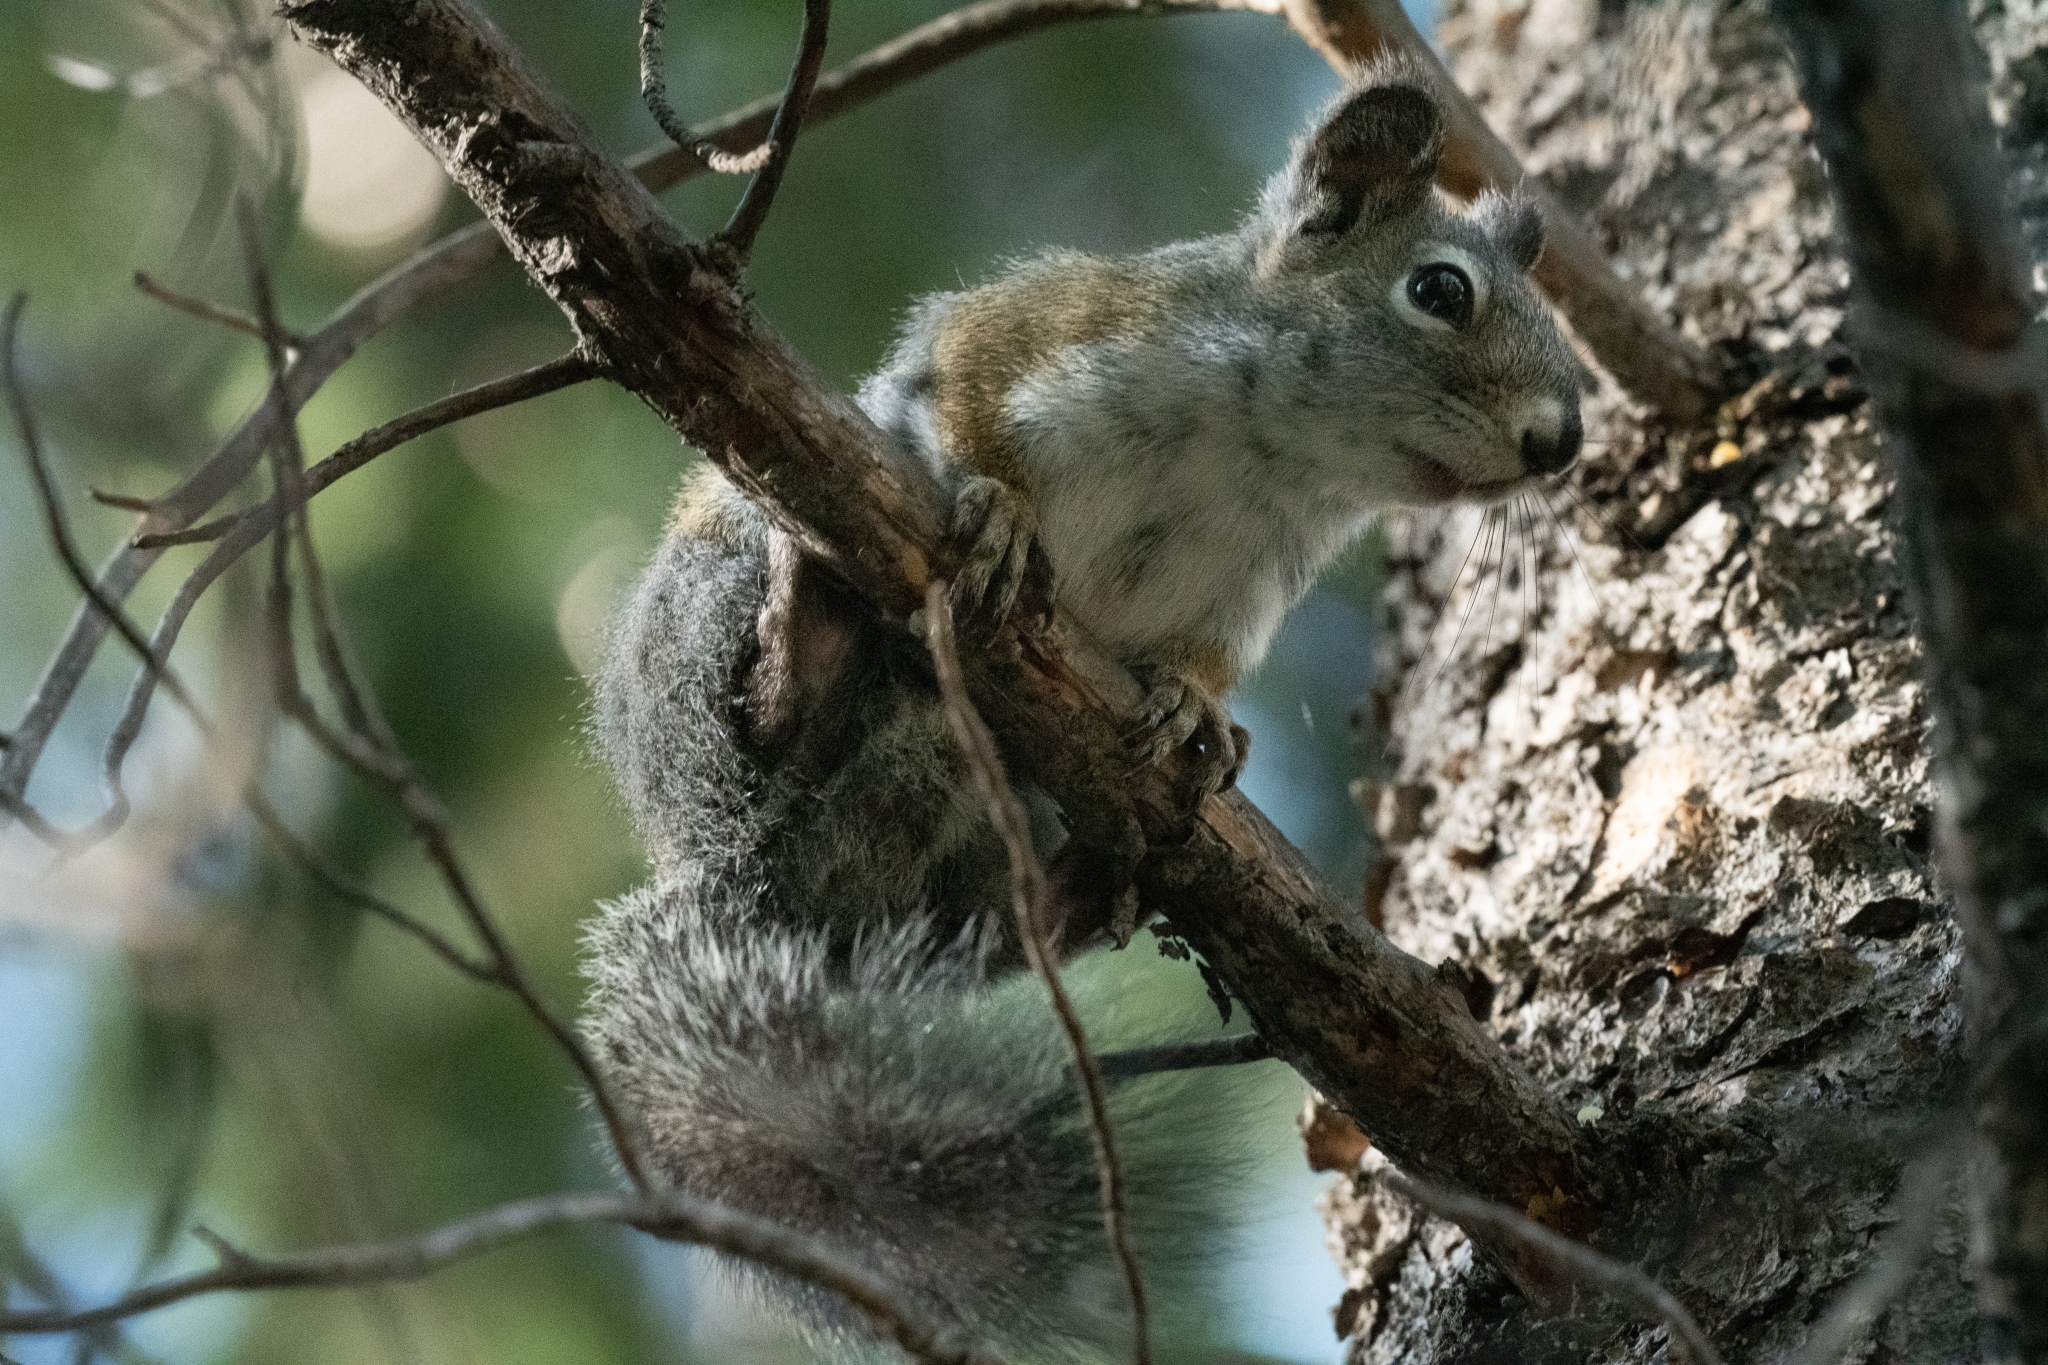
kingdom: Animalia
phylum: Chordata
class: Mammalia
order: Rodentia
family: Sciuridae
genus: Tamiasciurus
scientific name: Tamiasciurus hudsonicus
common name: Red squirrel
